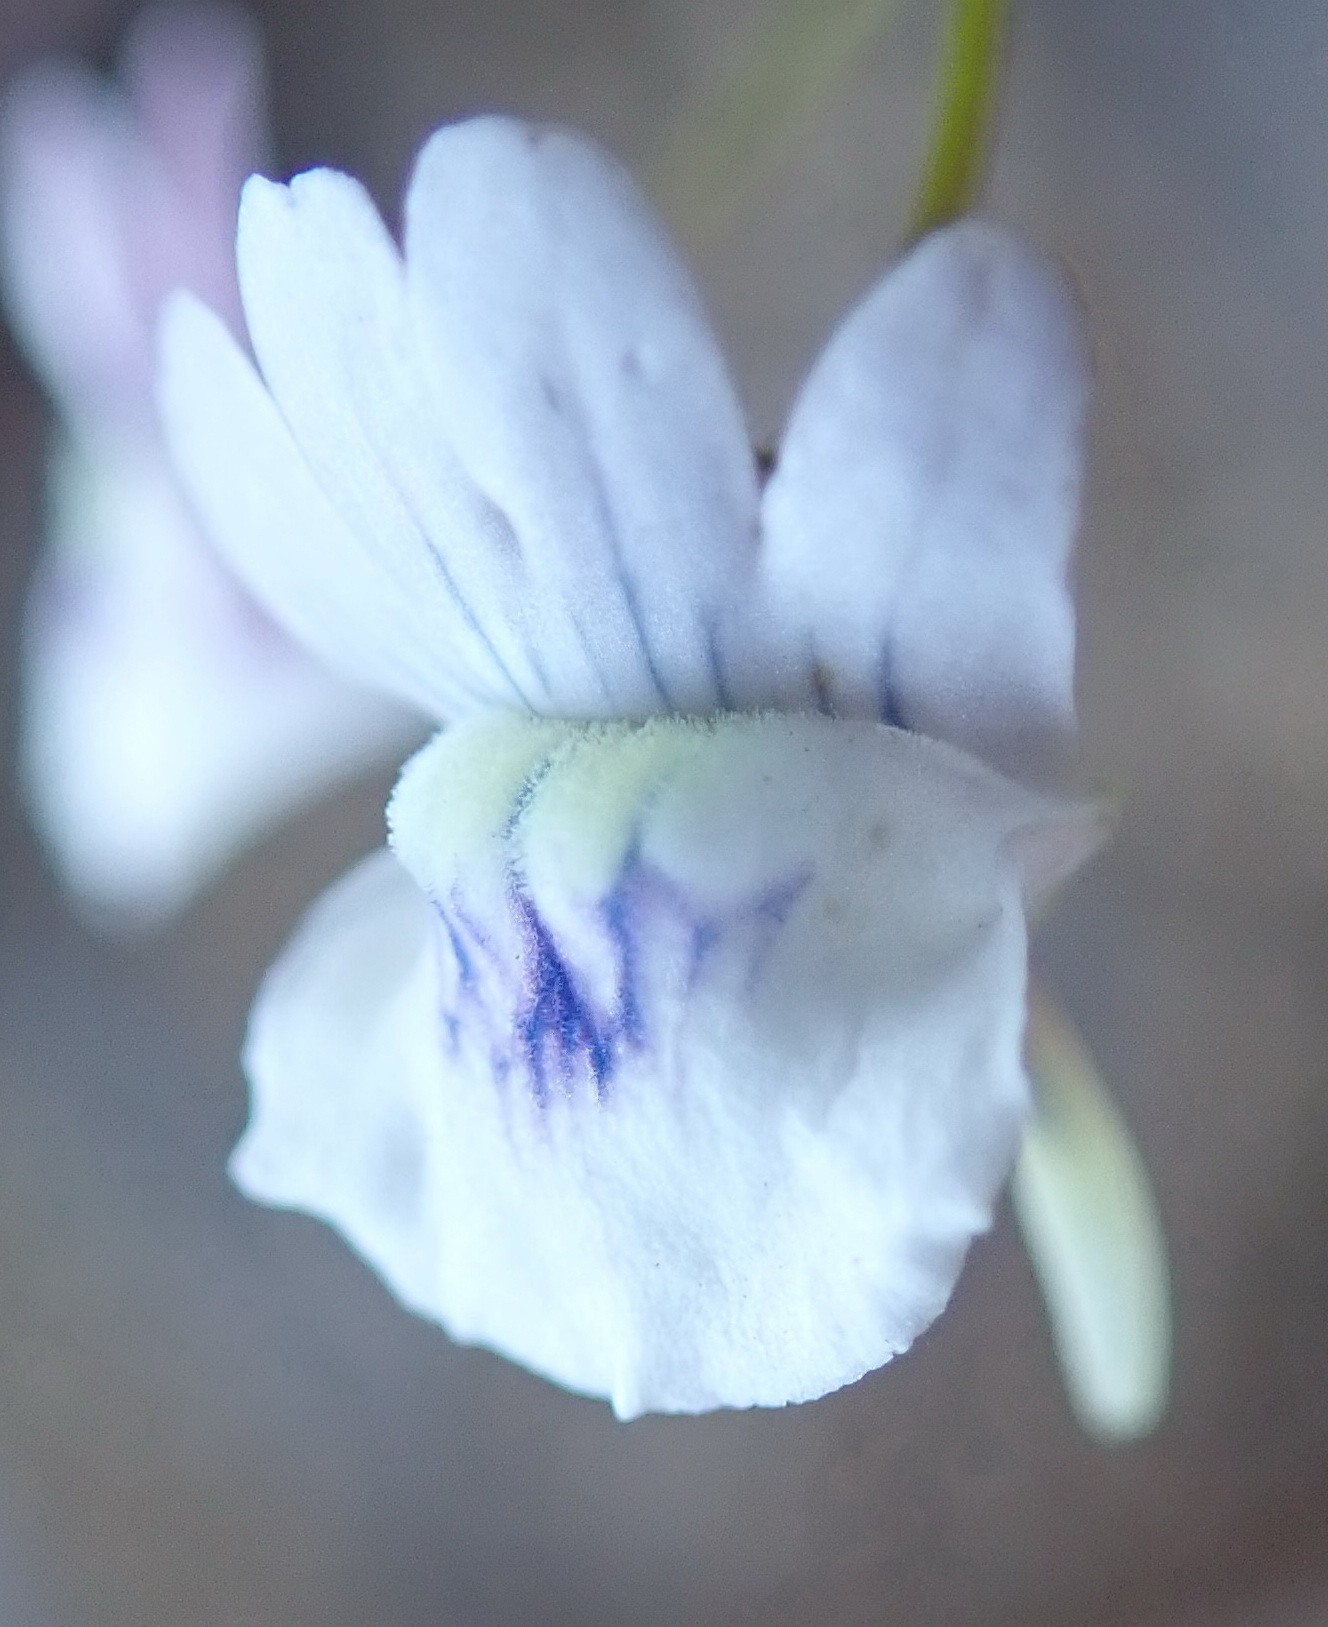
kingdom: Plantae
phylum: Tracheophyta
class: Magnoliopsida
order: Lamiales
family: Scrophulariaceae
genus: Nemesia
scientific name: Nemesia elata
